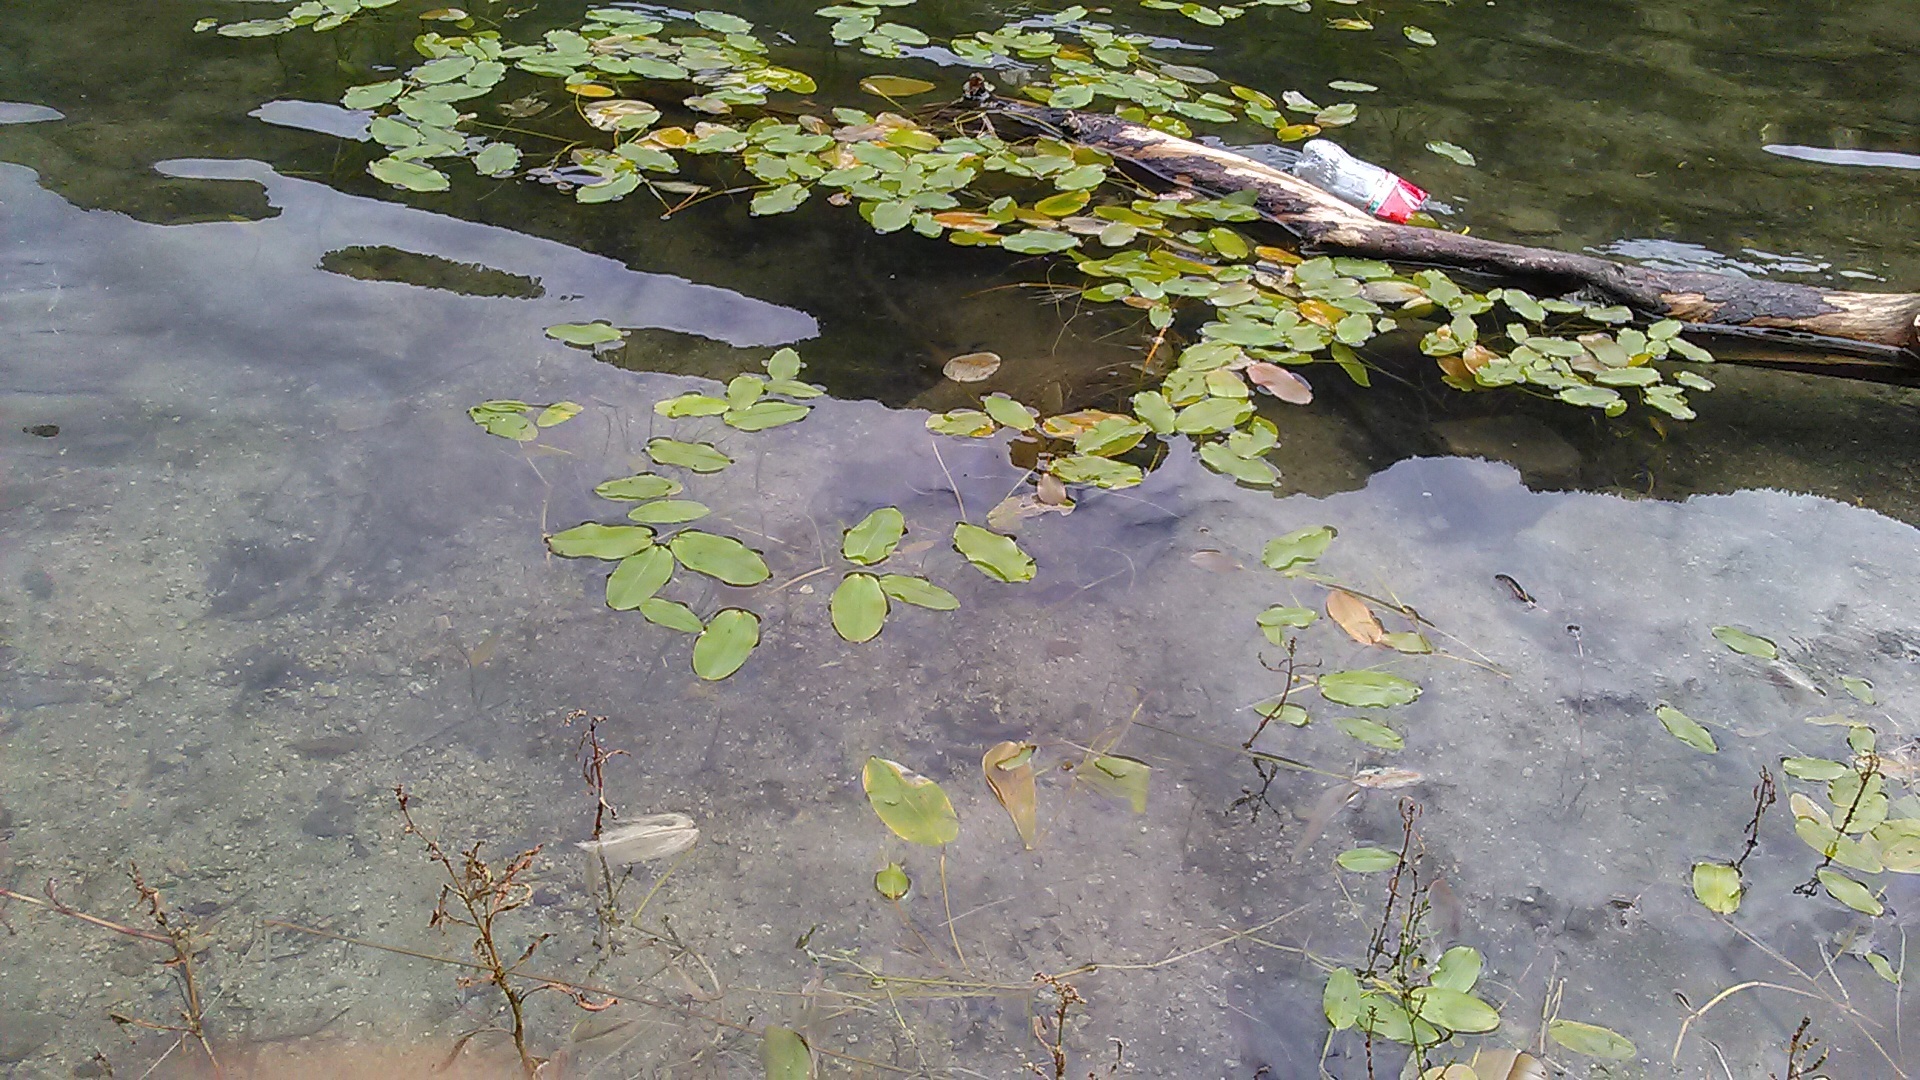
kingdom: Plantae
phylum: Tracheophyta
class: Liliopsida
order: Alismatales
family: Potamogetonaceae
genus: Potamogeton
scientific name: Potamogeton natans
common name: Broad-leaved pondweed
